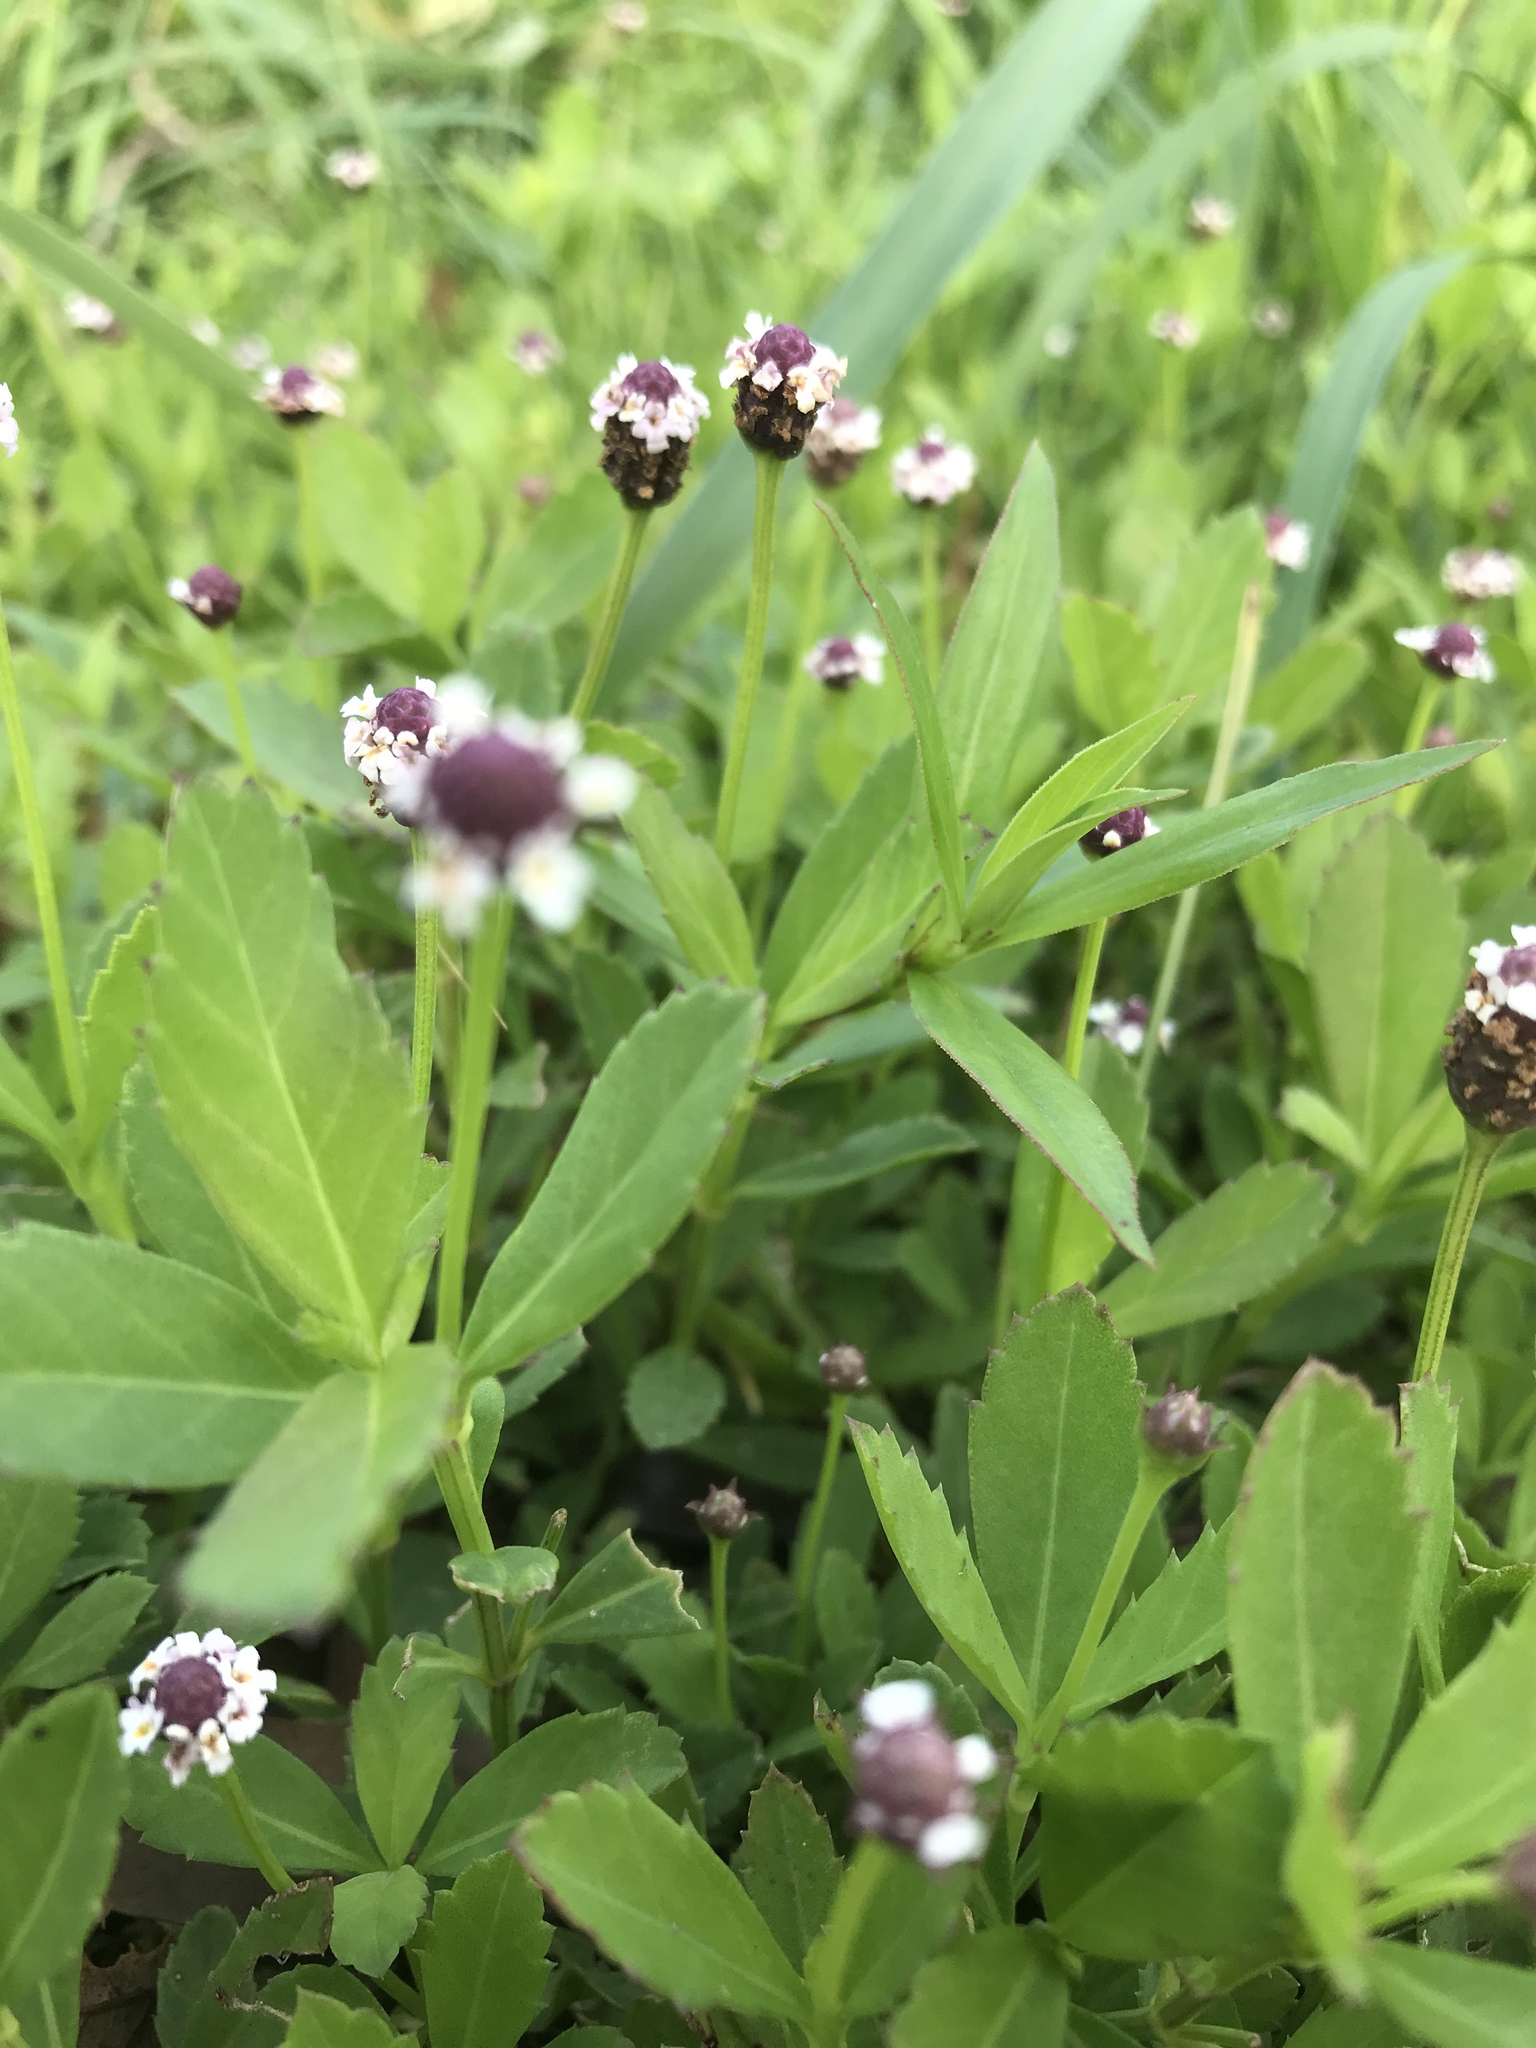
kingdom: Plantae
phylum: Tracheophyta
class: Magnoliopsida
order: Lamiales
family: Verbenaceae
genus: Phyla
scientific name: Phyla lanceolata
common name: Northern fogfruit
